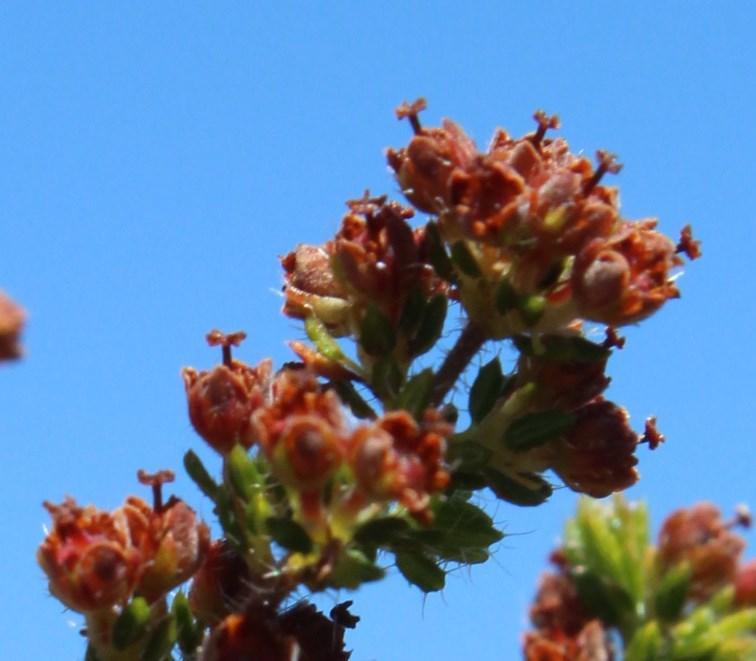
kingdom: Plantae
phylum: Tracheophyta
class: Magnoliopsida
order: Ericales
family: Ericaceae
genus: Erica
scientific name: Erica hispiduloides
